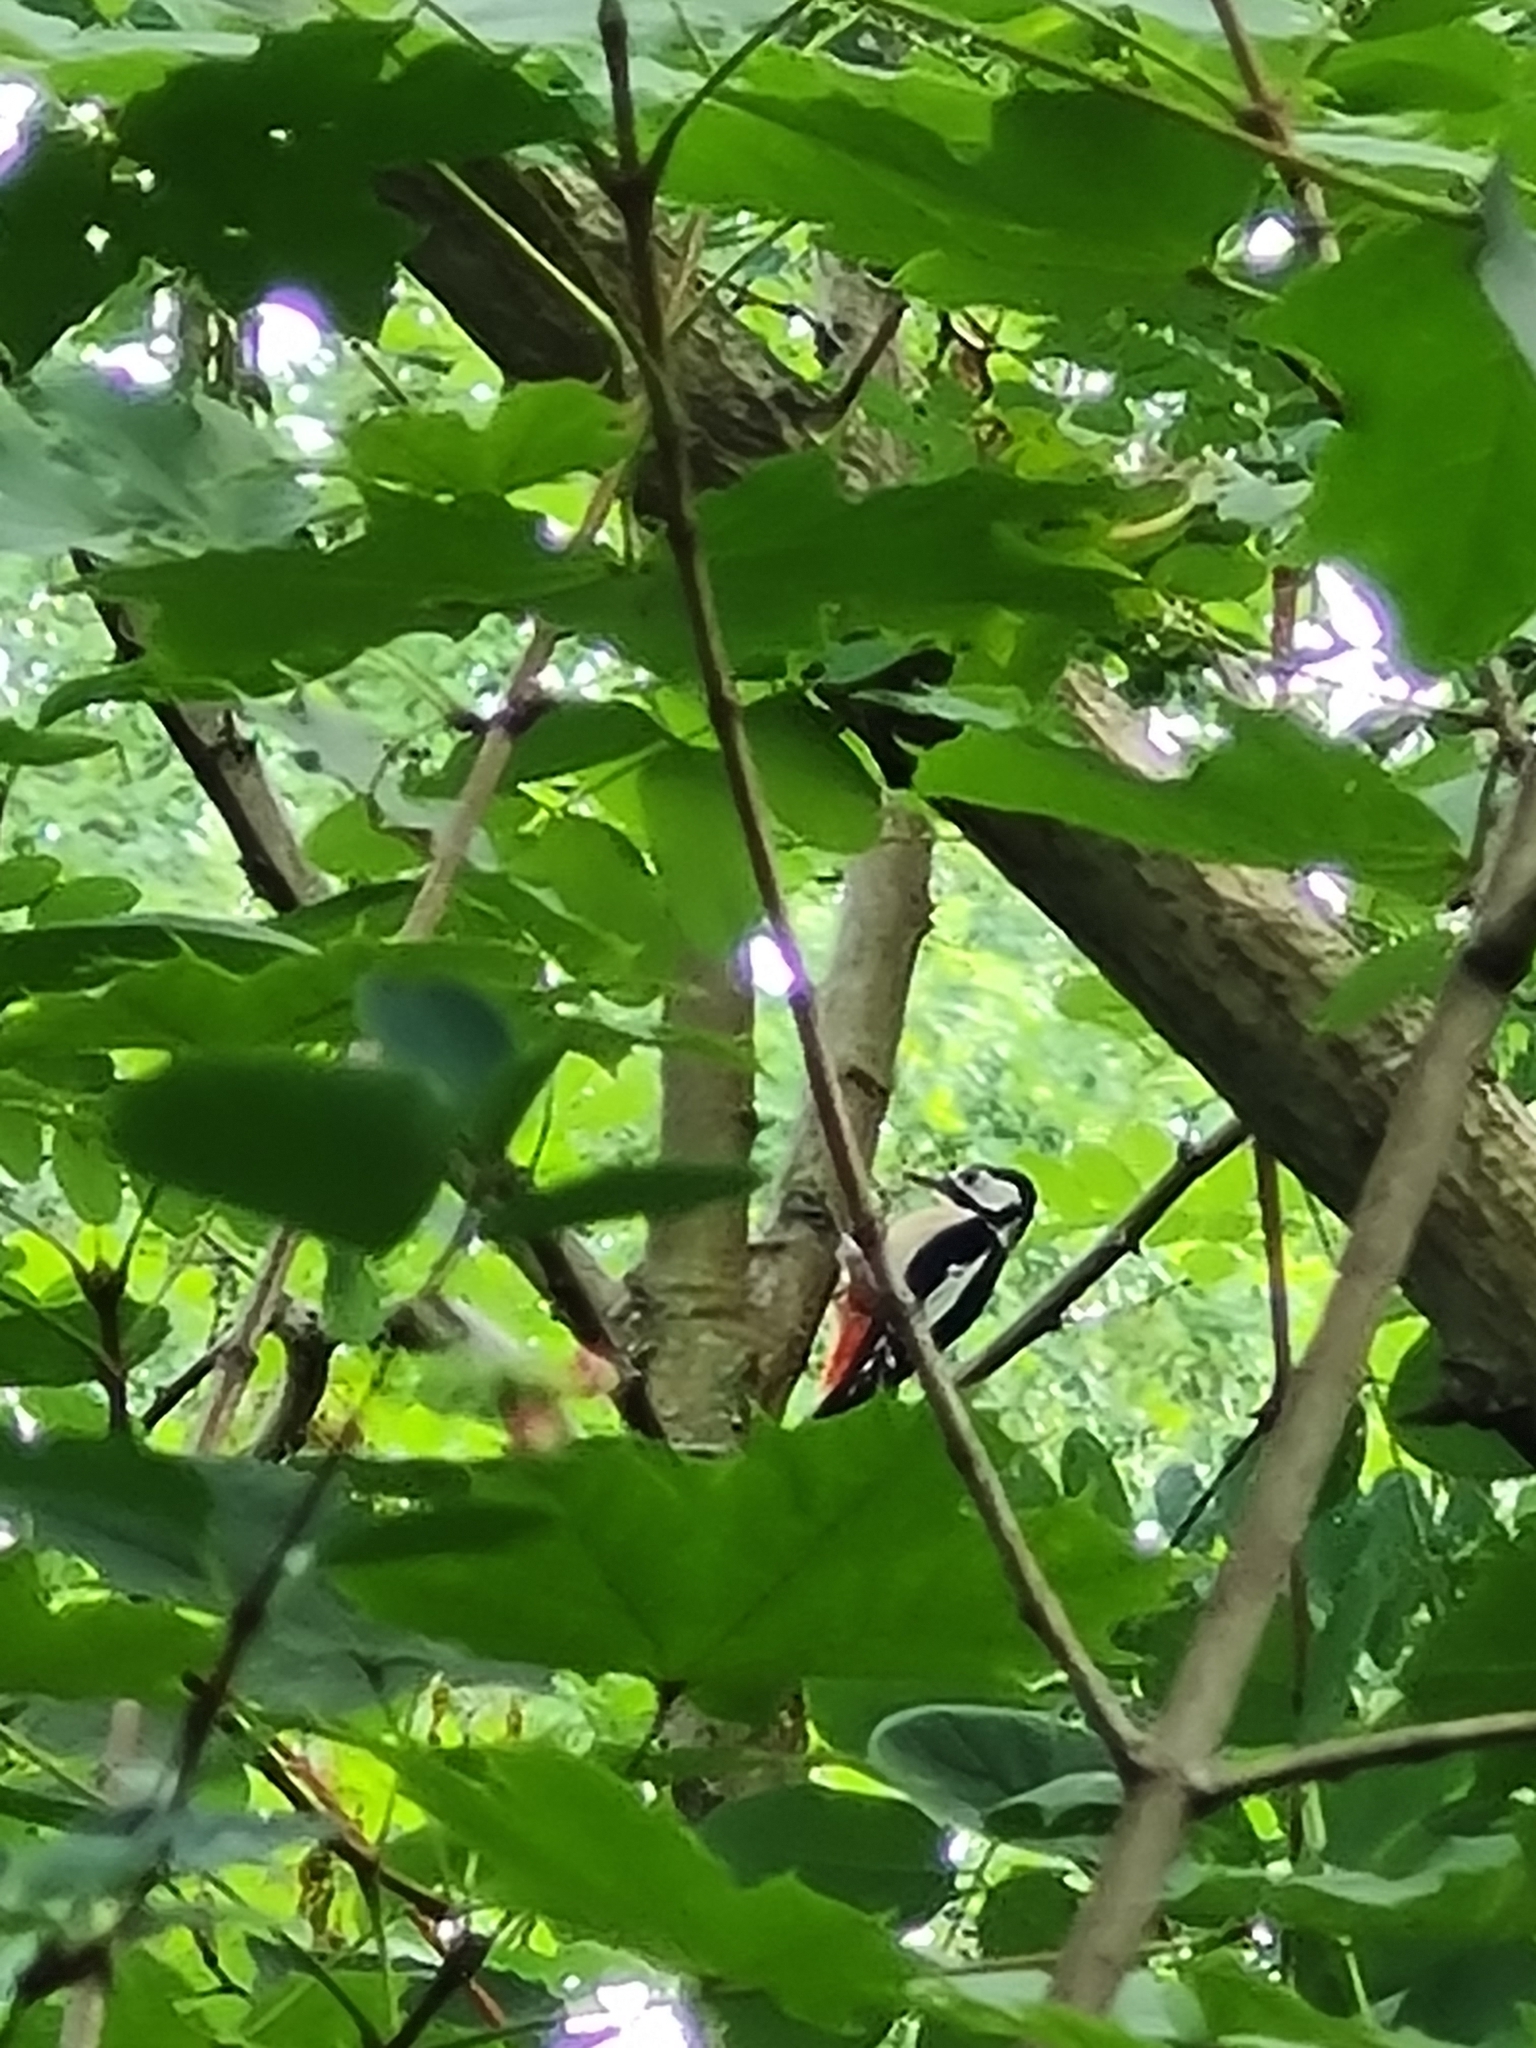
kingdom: Animalia
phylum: Chordata
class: Aves
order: Piciformes
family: Picidae
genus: Dendrocopos
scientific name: Dendrocopos major
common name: Great spotted woodpecker
